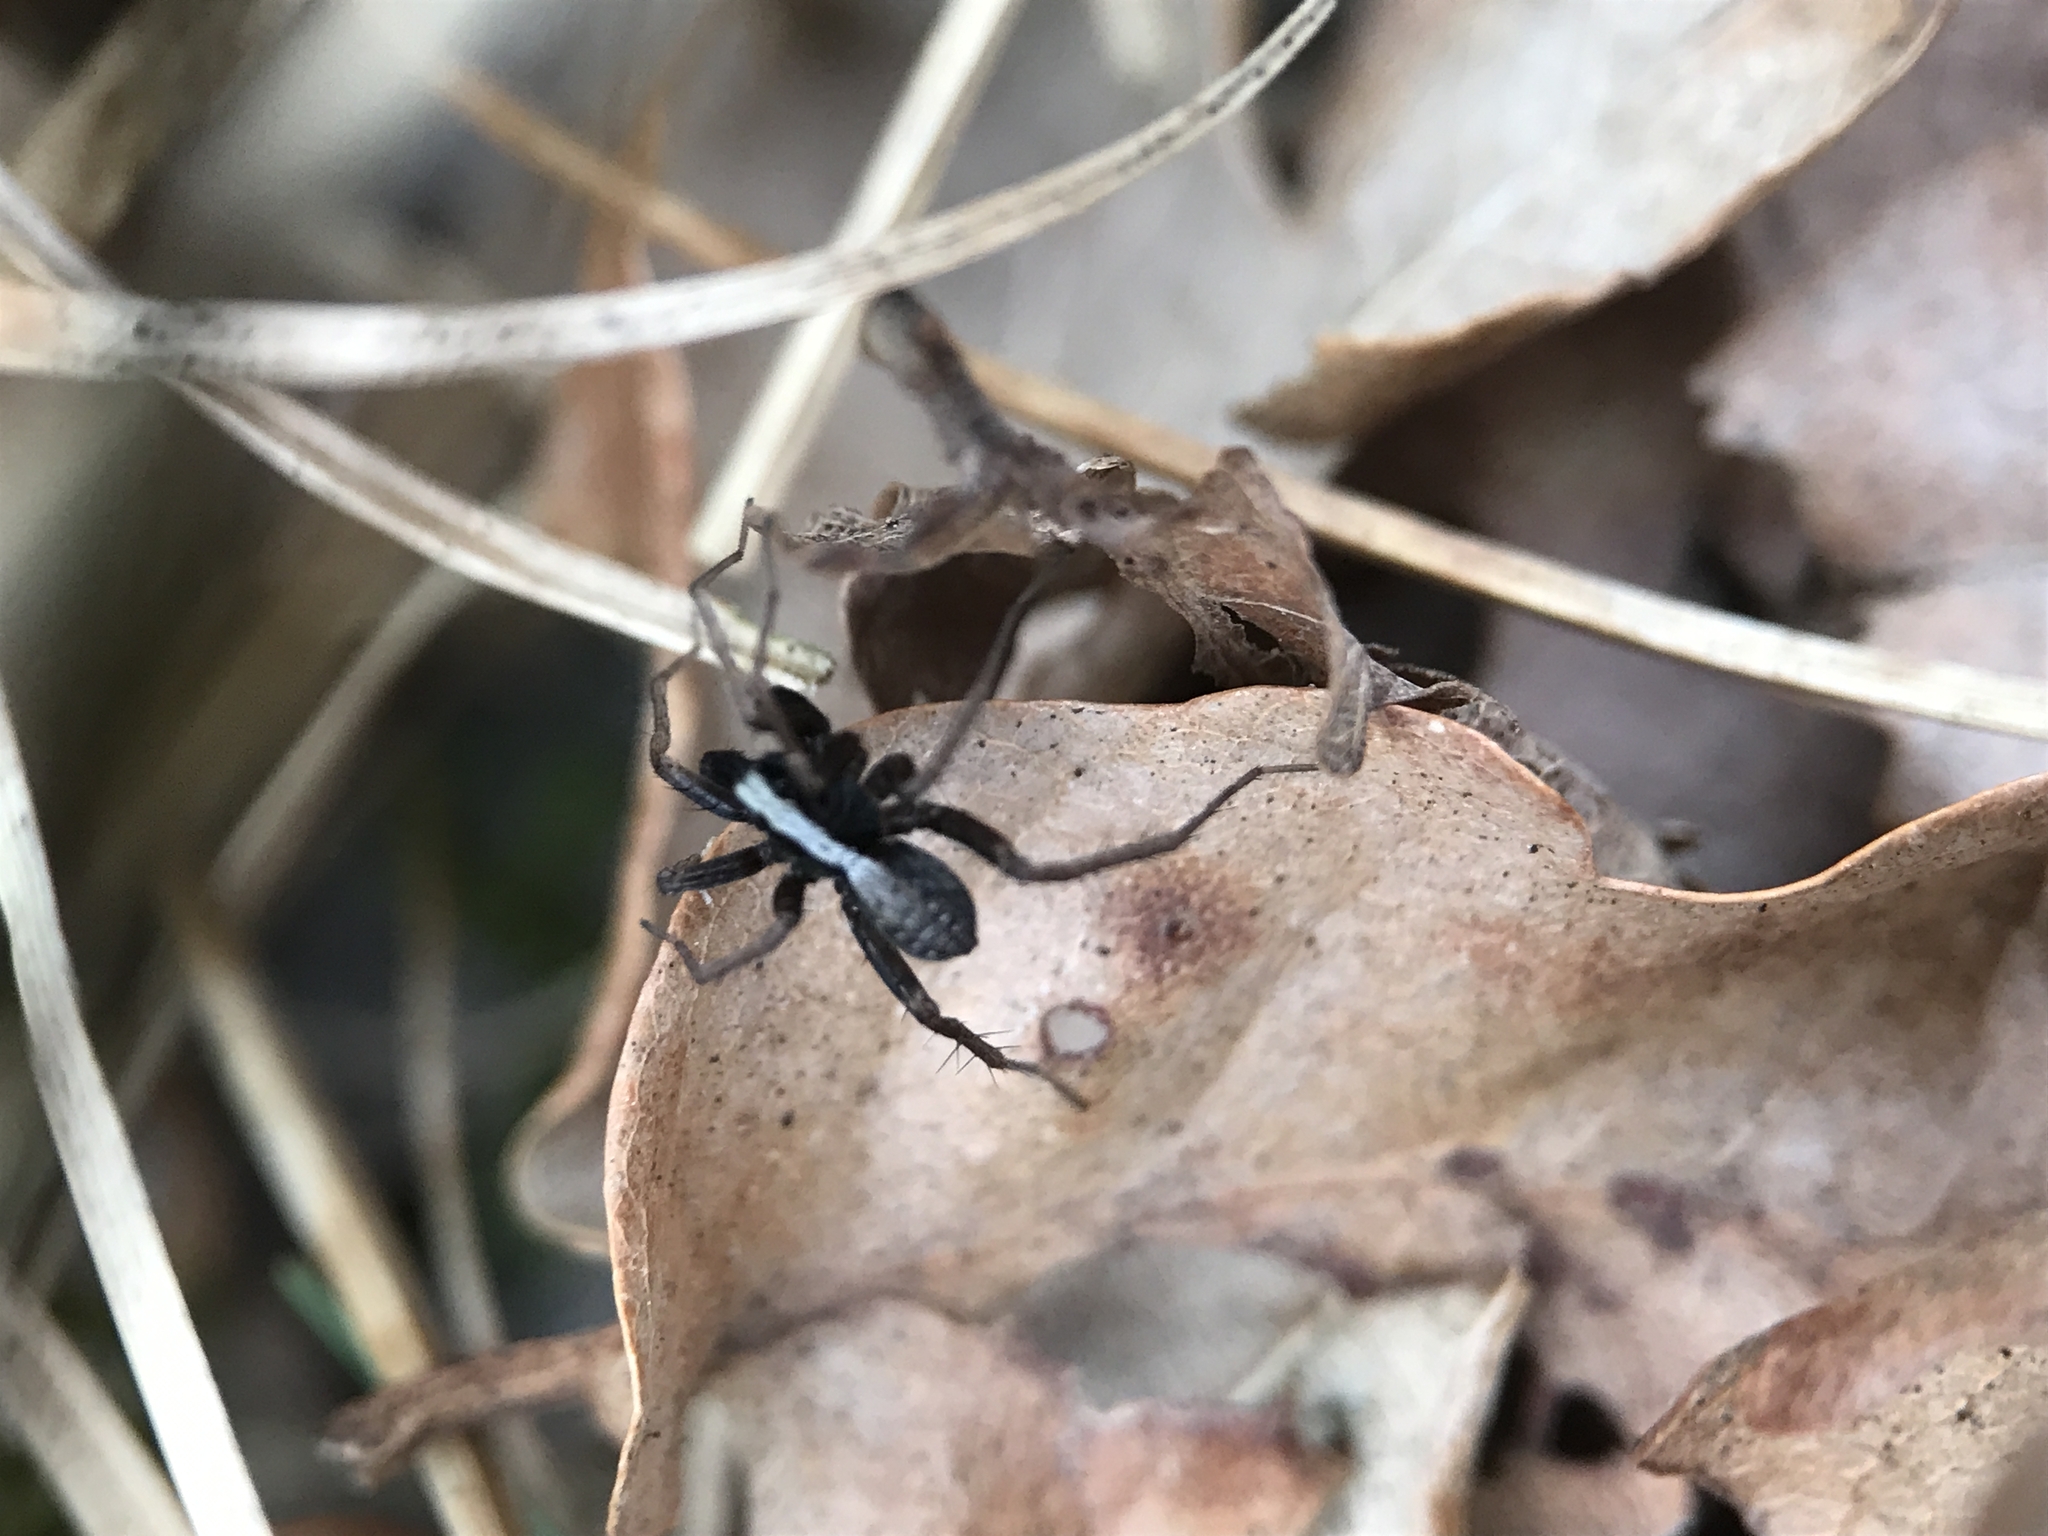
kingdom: Animalia
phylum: Arthropoda
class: Arachnida
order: Araneae
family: Lycosidae
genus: Pardosa
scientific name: Pardosa
